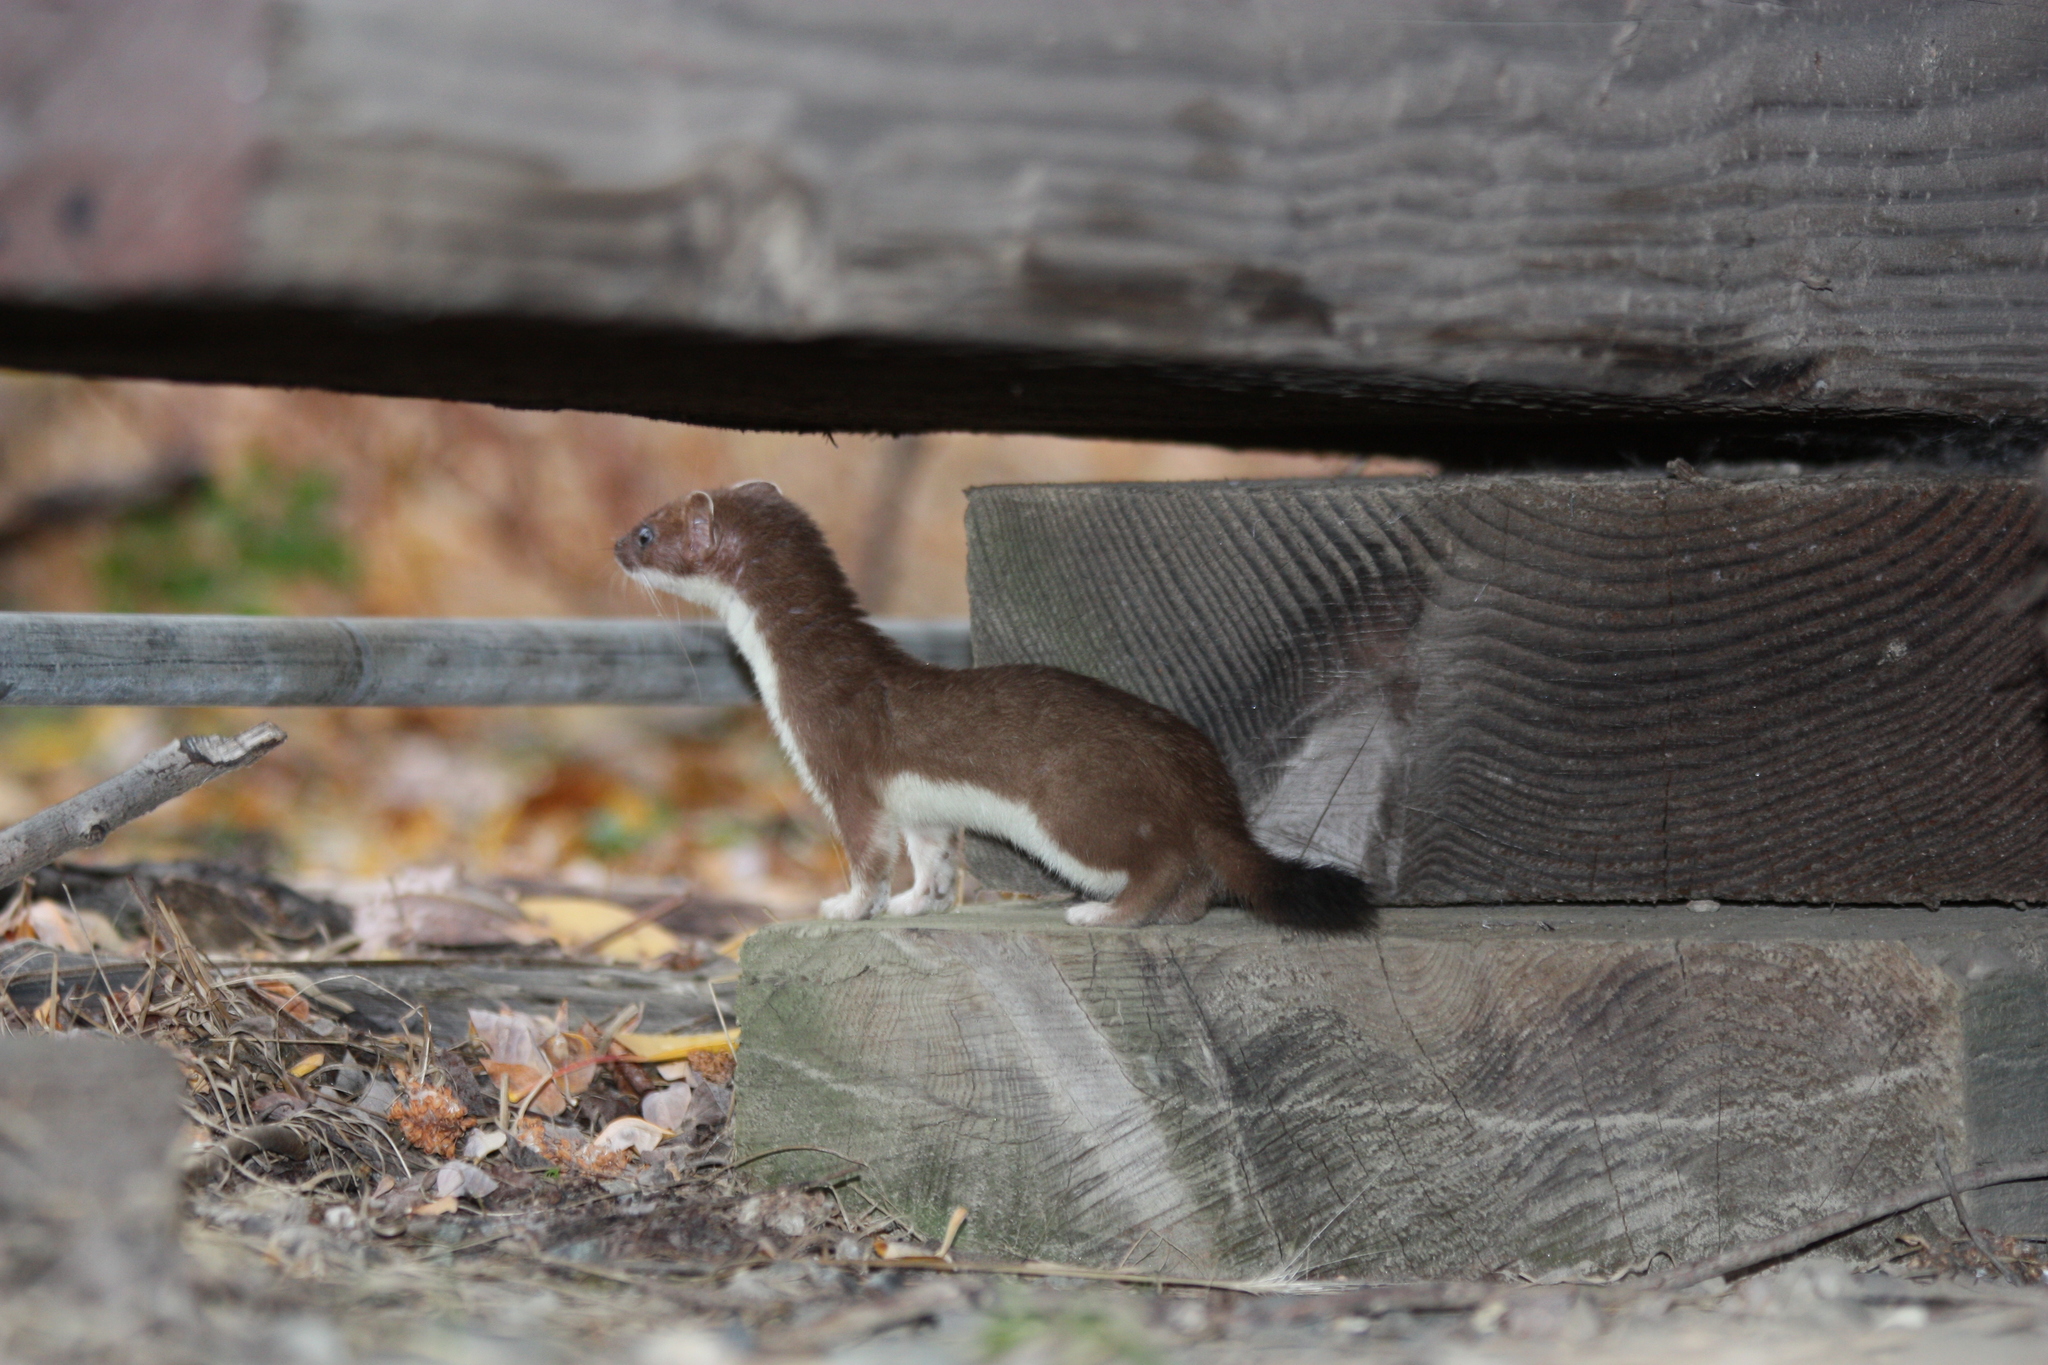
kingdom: Animalia
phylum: Chordata
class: Mammalia
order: Carnivora
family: Mustelidae
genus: Mustela
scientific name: Mustela erminea
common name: Stoat
